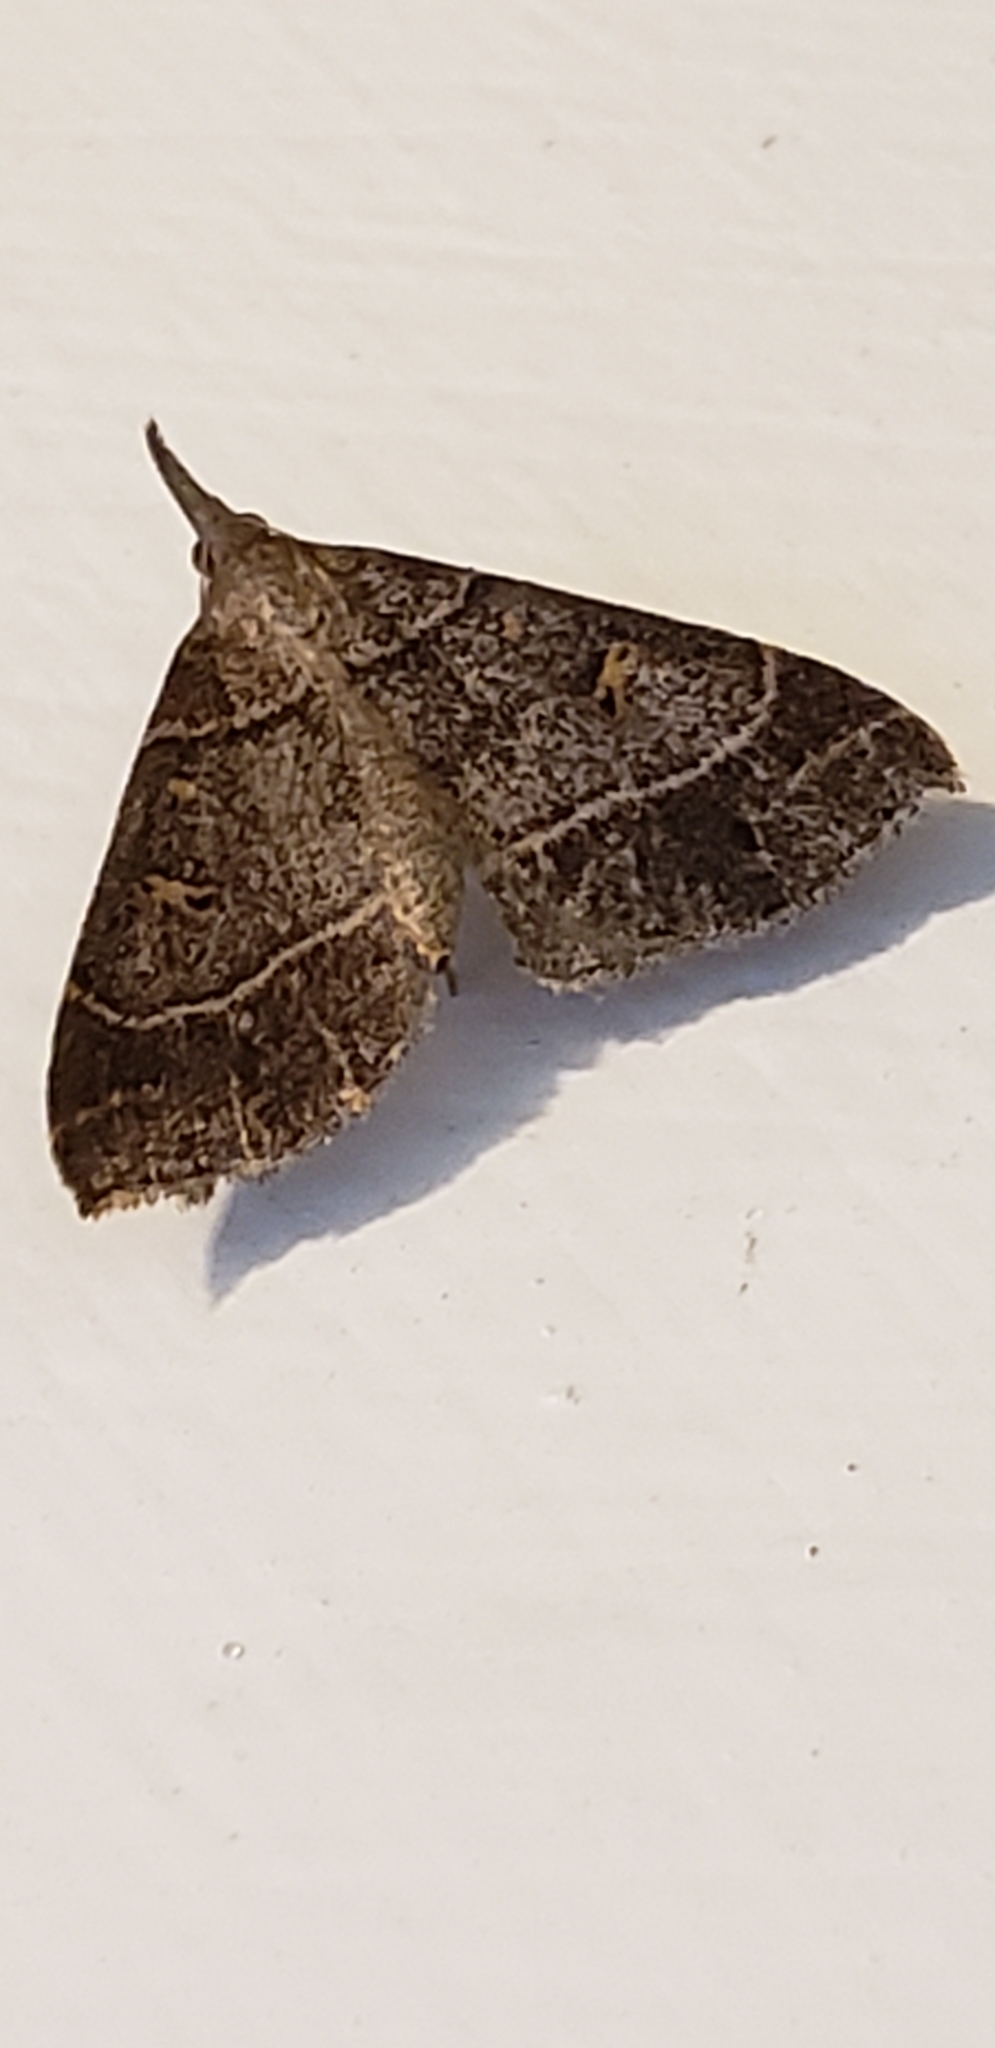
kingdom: Animalia
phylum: Arthropoda
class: Insecta
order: Lepidoptera
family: Erebidae
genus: Renia
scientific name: Renia flavipunctalis
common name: Yellow-spotted renia moth
